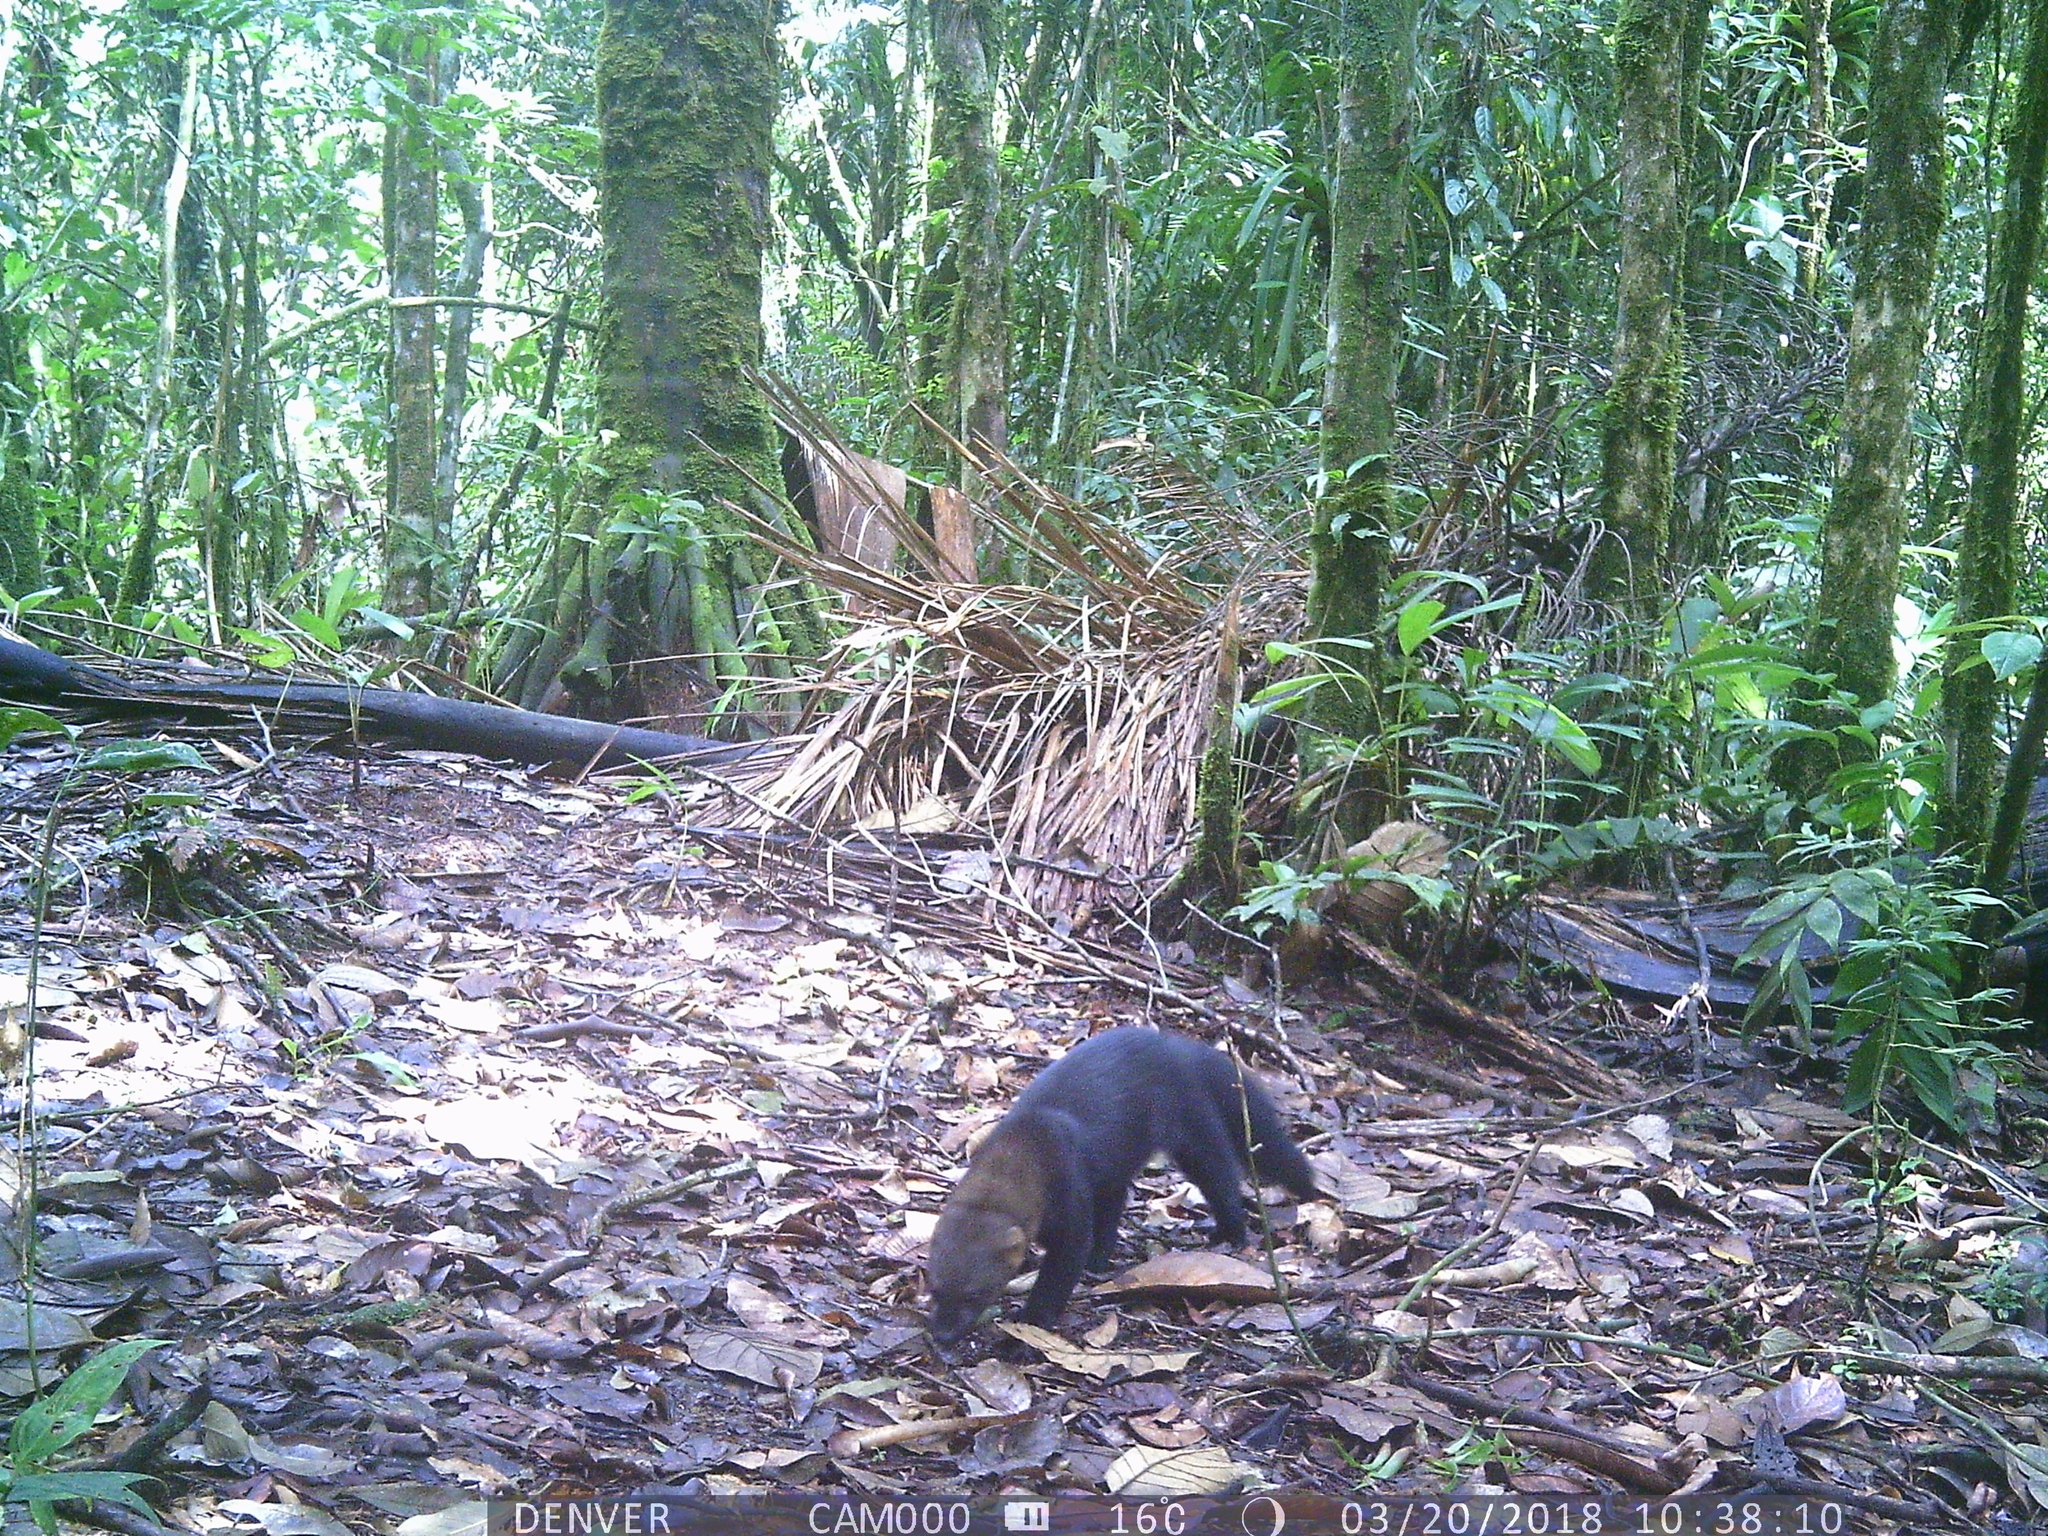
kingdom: Animalia
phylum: Chordata
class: Mammalia
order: Carnivora
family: Mustelidae
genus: Eira
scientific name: Eira barbara
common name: Tayra
